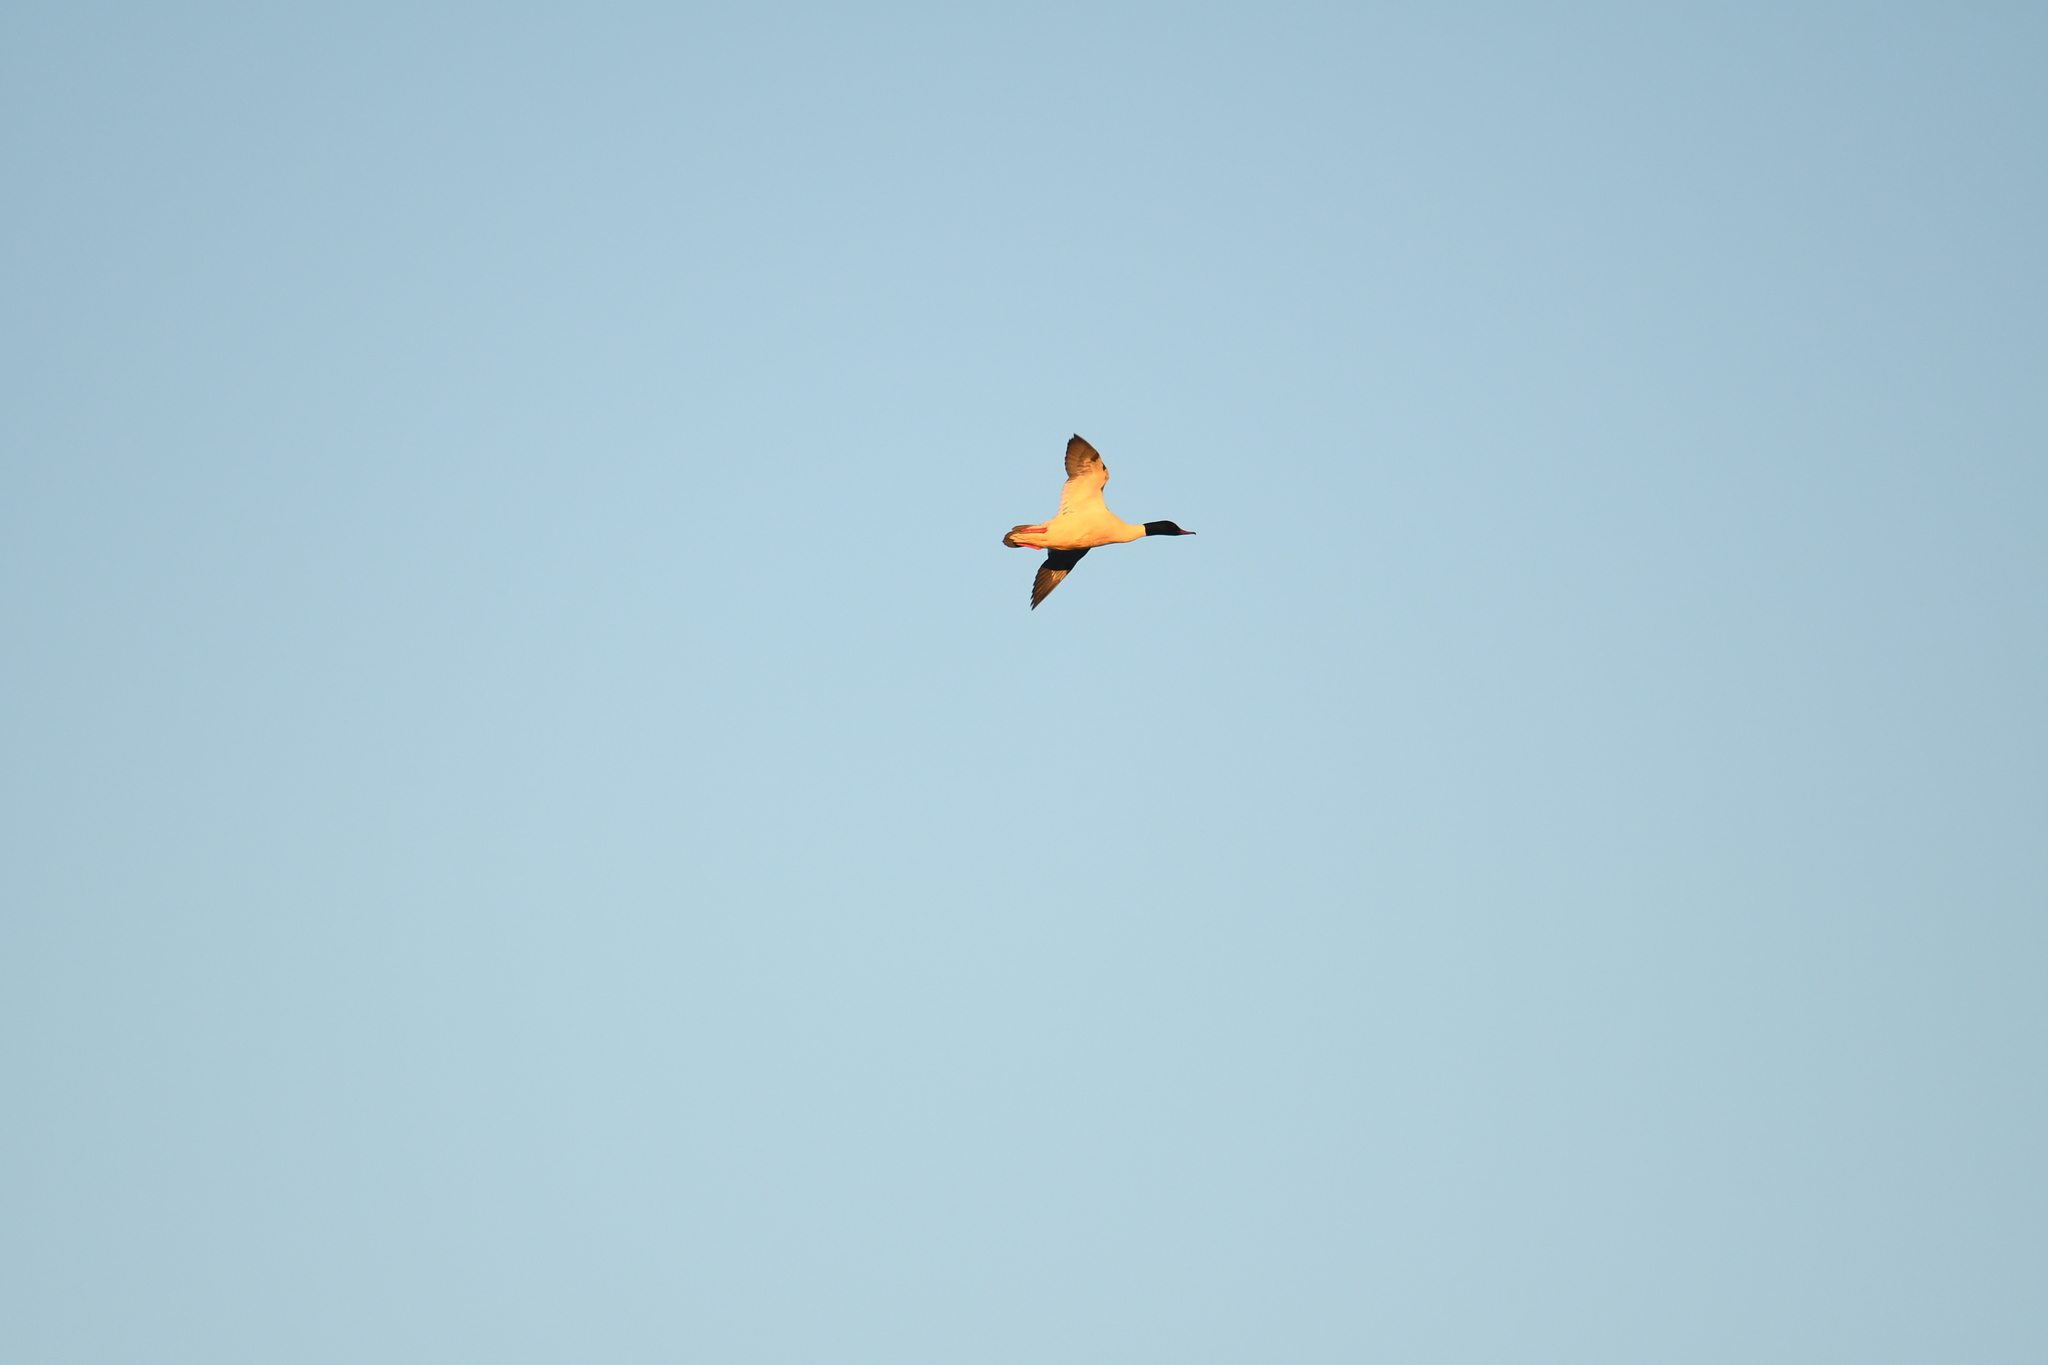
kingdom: Animalia
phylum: Chordata
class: Aves
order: Anseriformes
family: Anatidae
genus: Mergus
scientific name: Mergus merganser
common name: Common merganser
